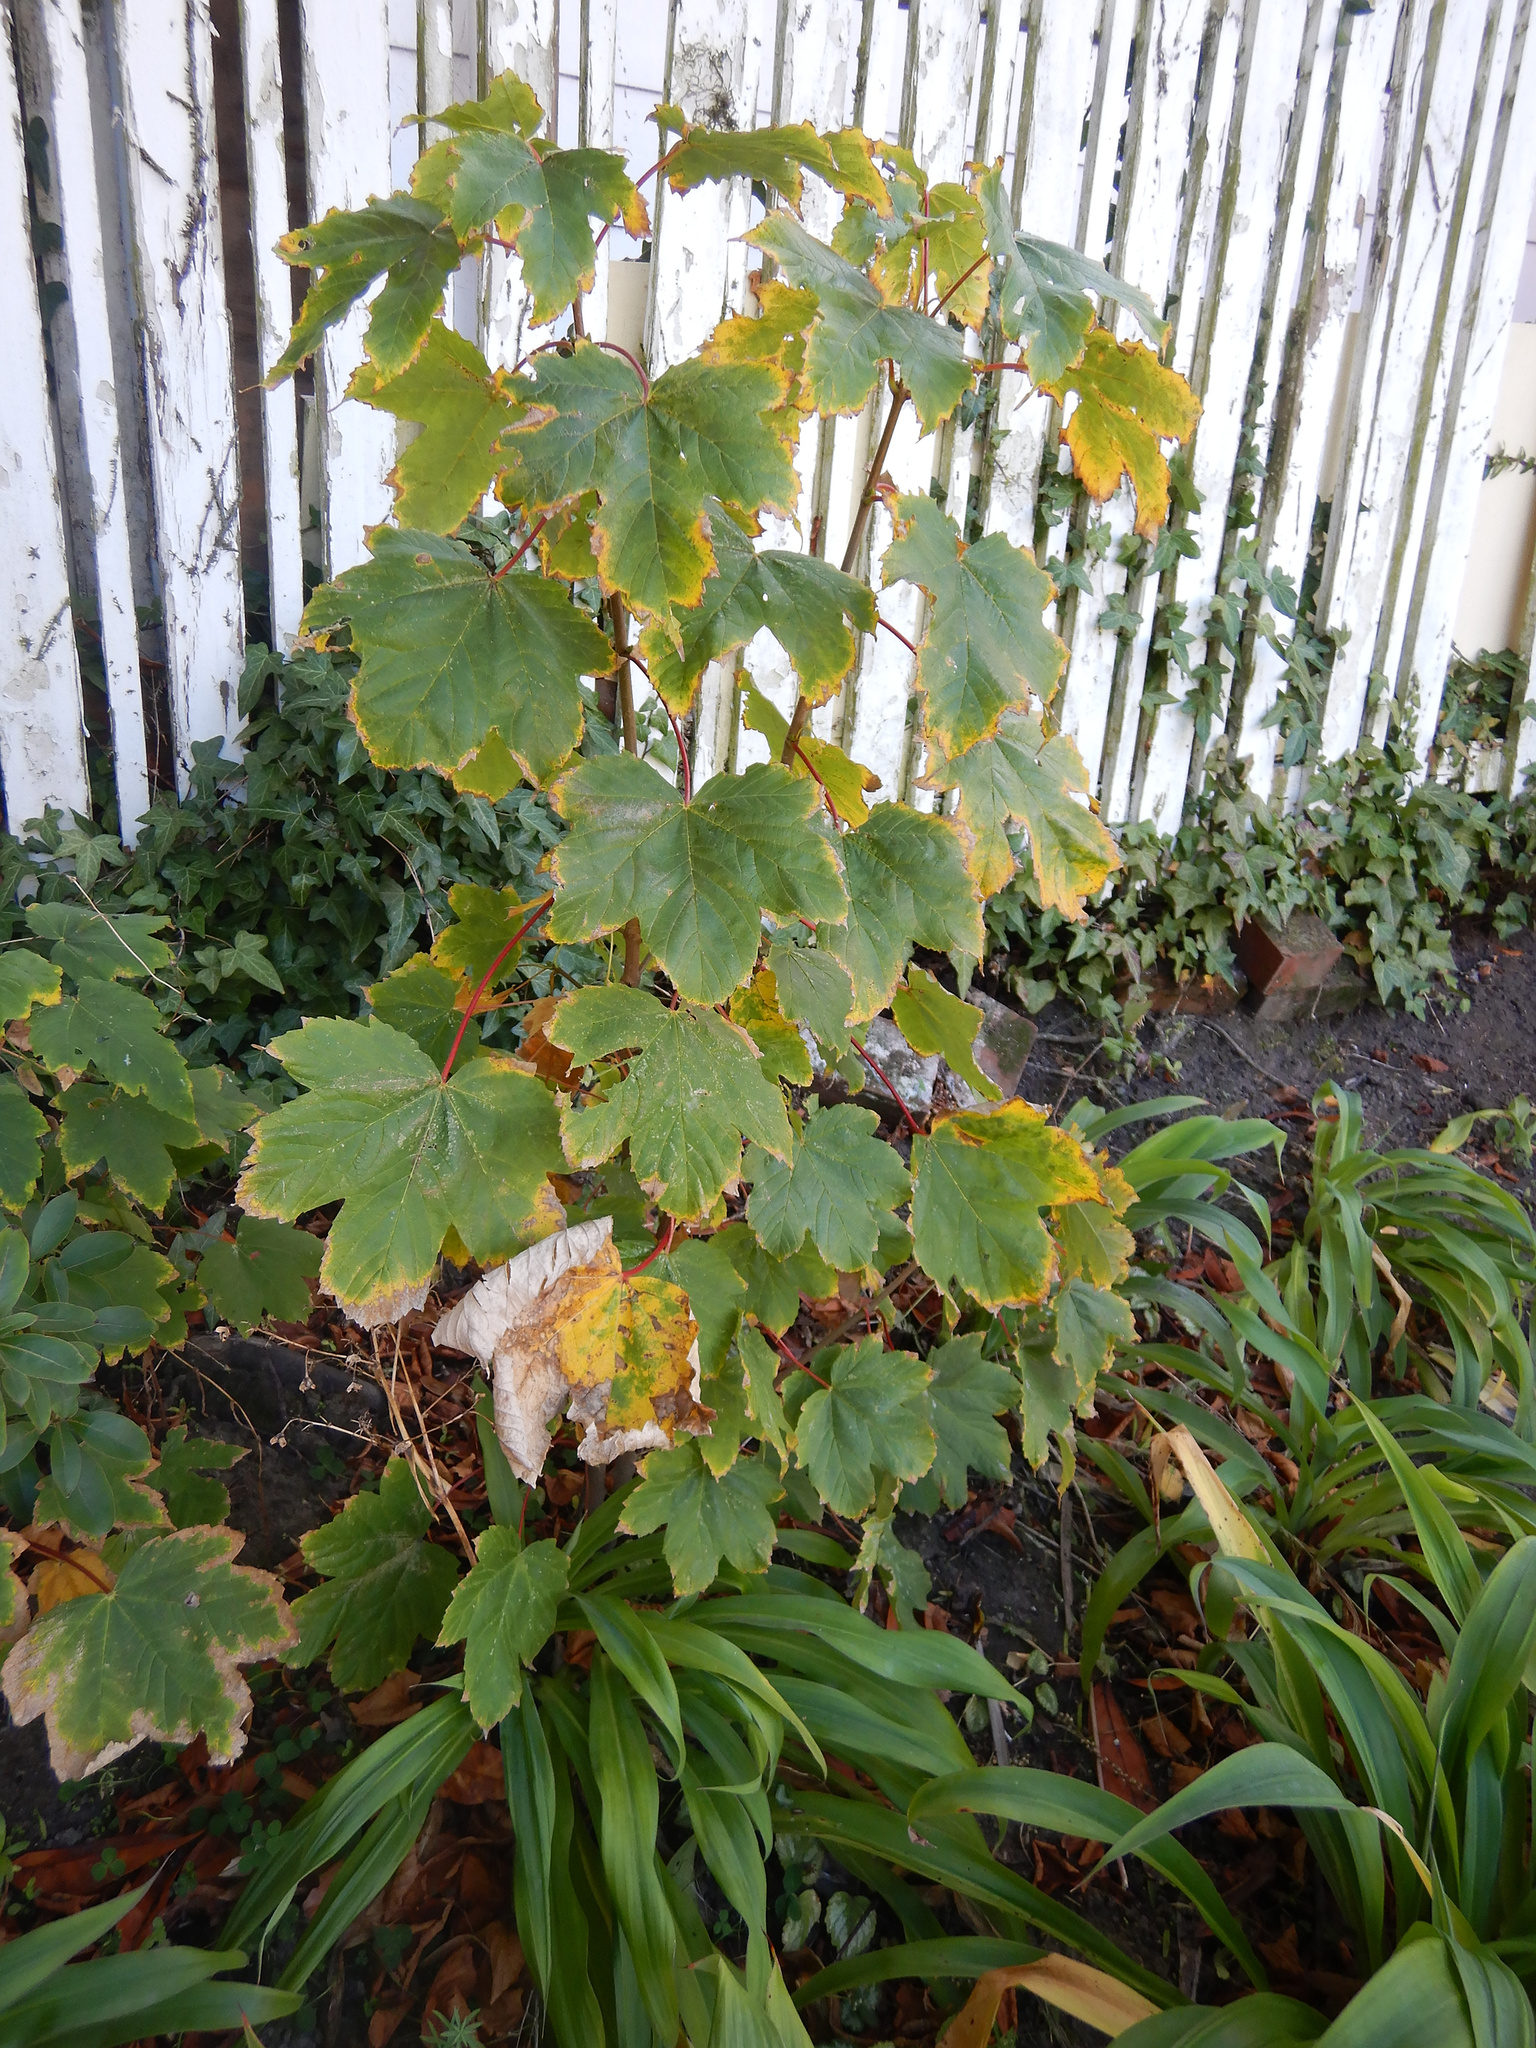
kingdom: Plantae
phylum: Tracheophyta
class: Magnoliopsida
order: Sapindales
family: Sapindaceae
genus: Acer
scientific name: Acer pseudoplatanus
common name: Sycamore
